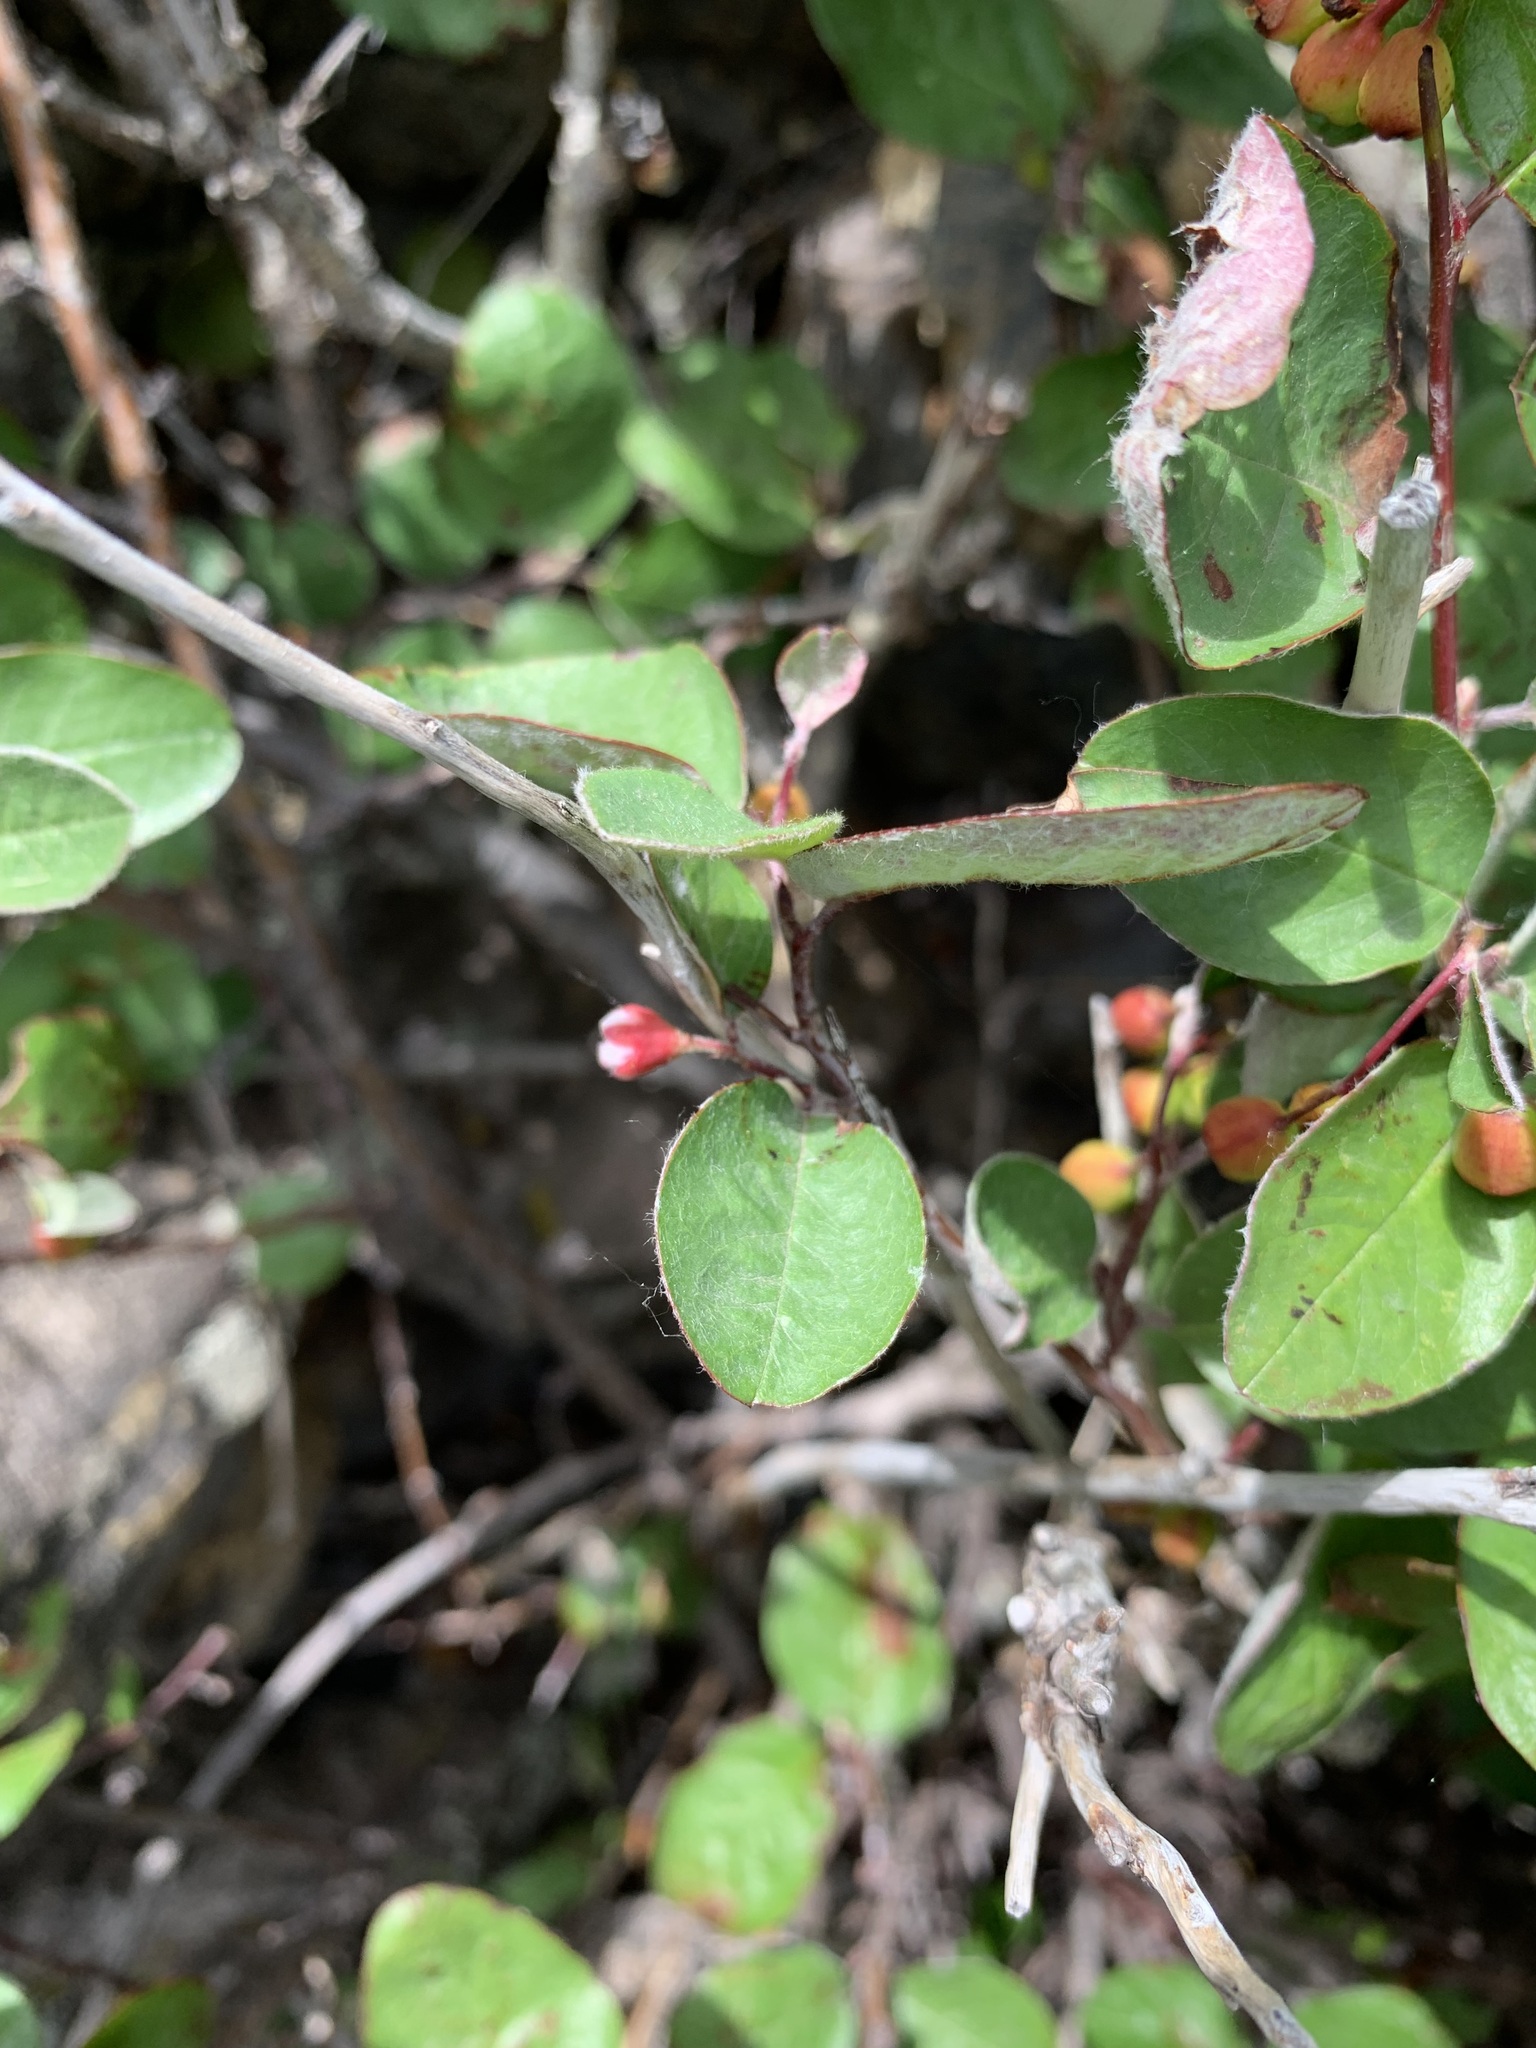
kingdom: Plantae
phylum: Tracheophyta
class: Magnoliopsida
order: Rosales
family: Rosaceae
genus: Cotoneaster
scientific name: Cotoneaster melanocarpus
